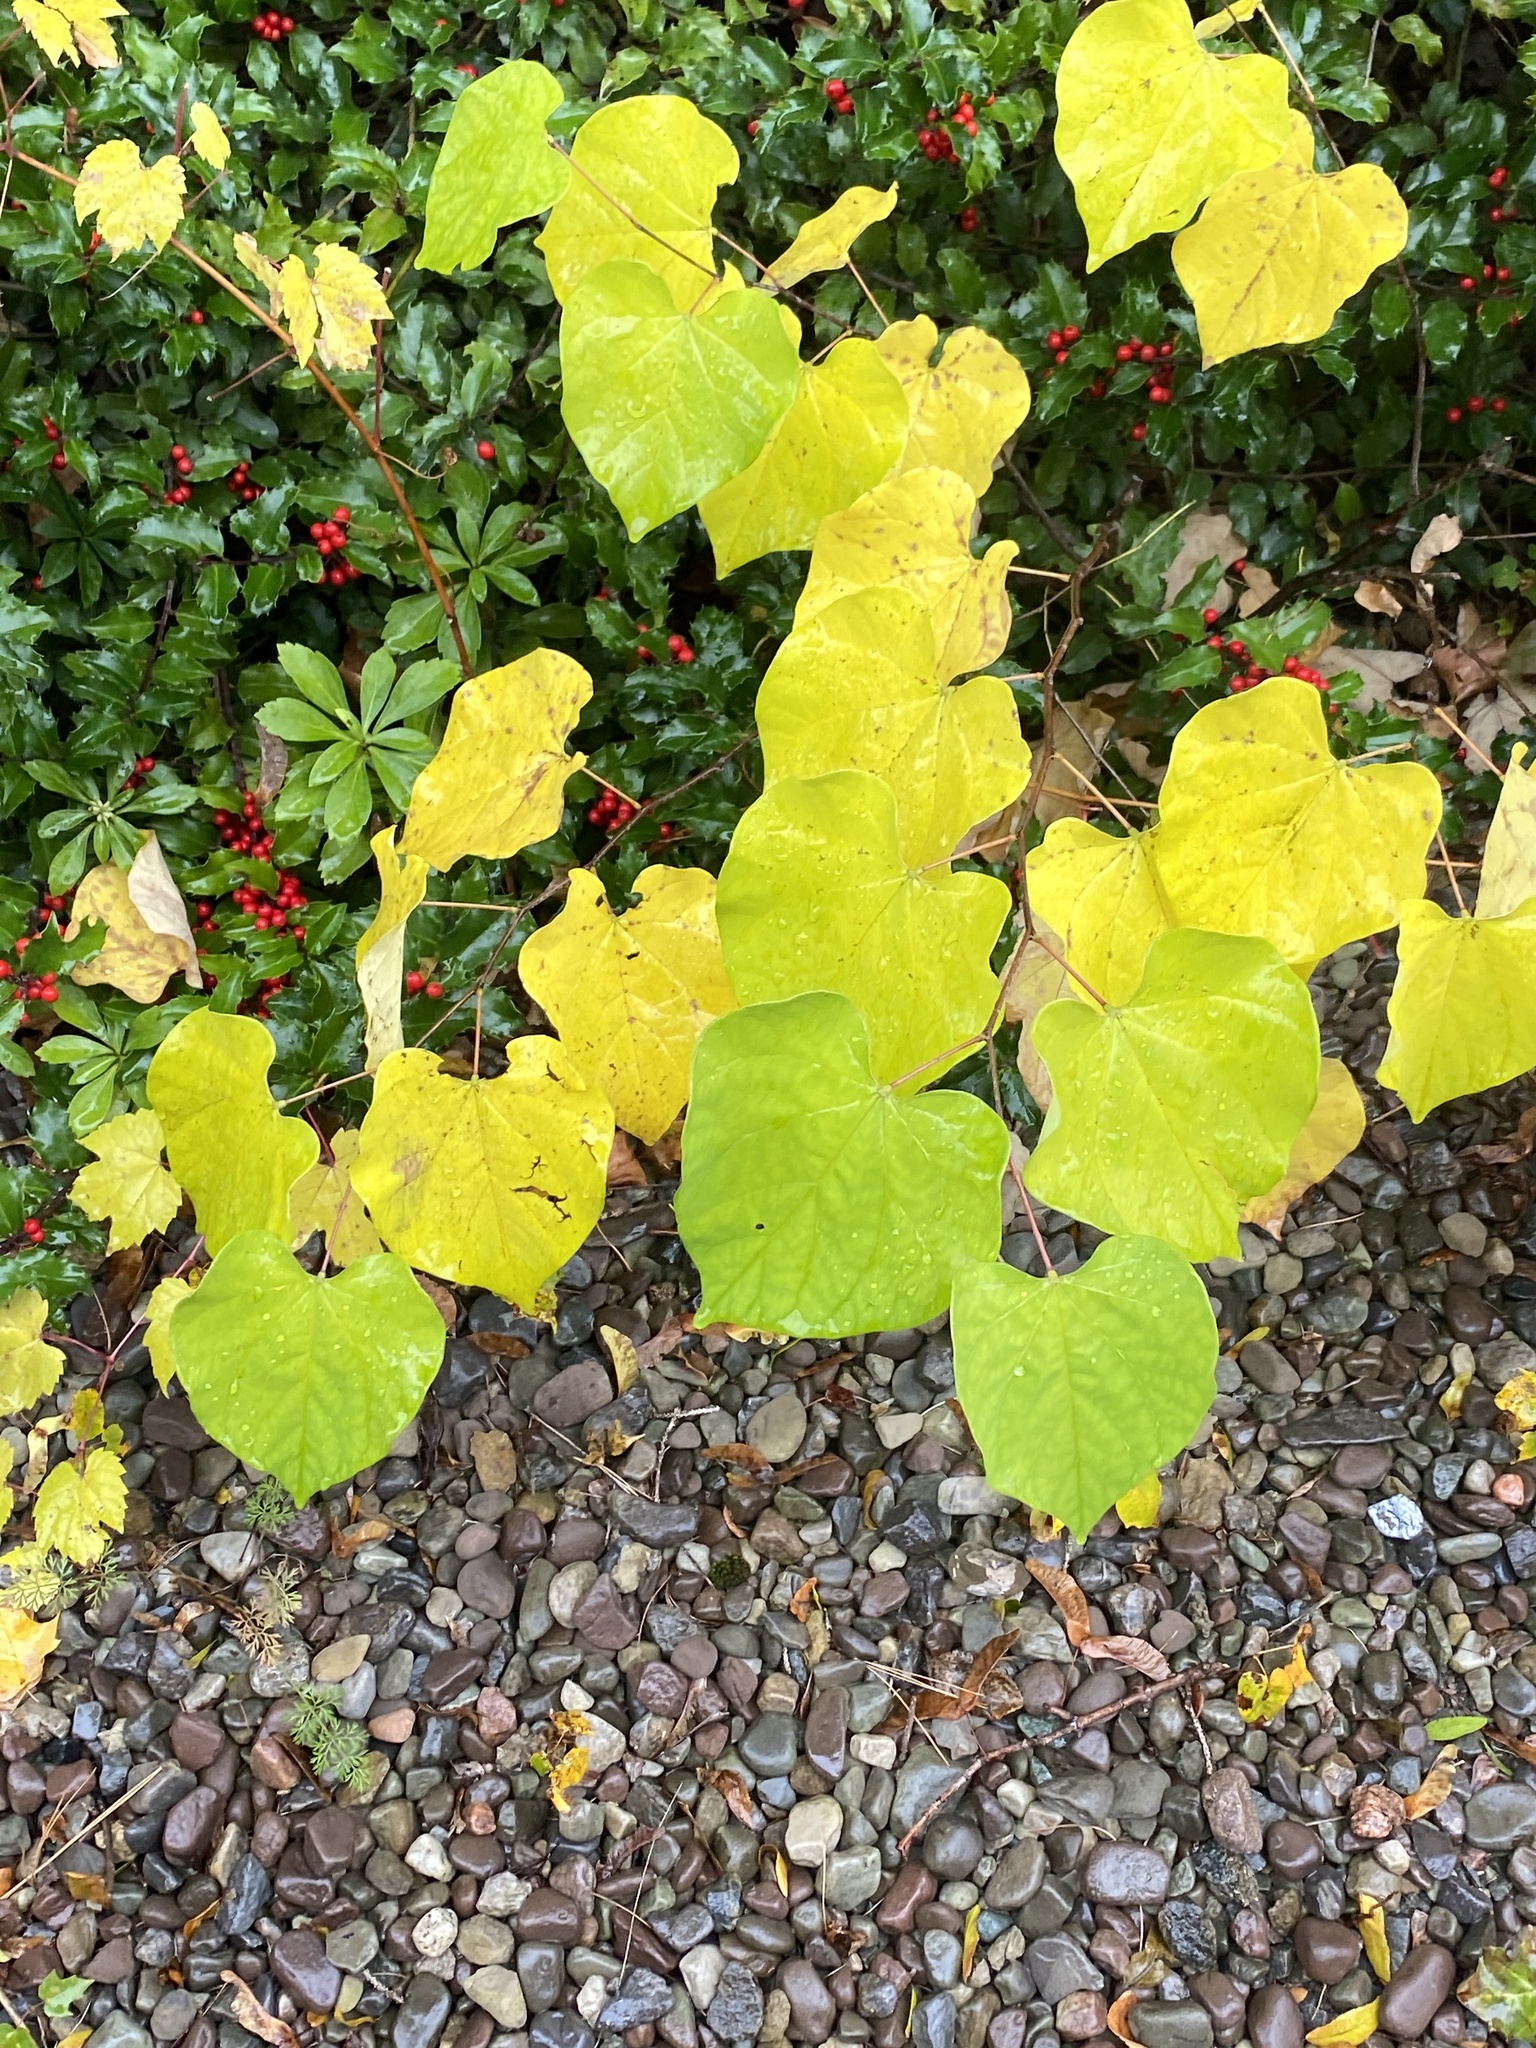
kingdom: Plantae
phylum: Tracheophyta
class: Magnoliopsida
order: Fabales
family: Fabaceae
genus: Cercis
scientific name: Cercis canadensis
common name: Eastern redbud
